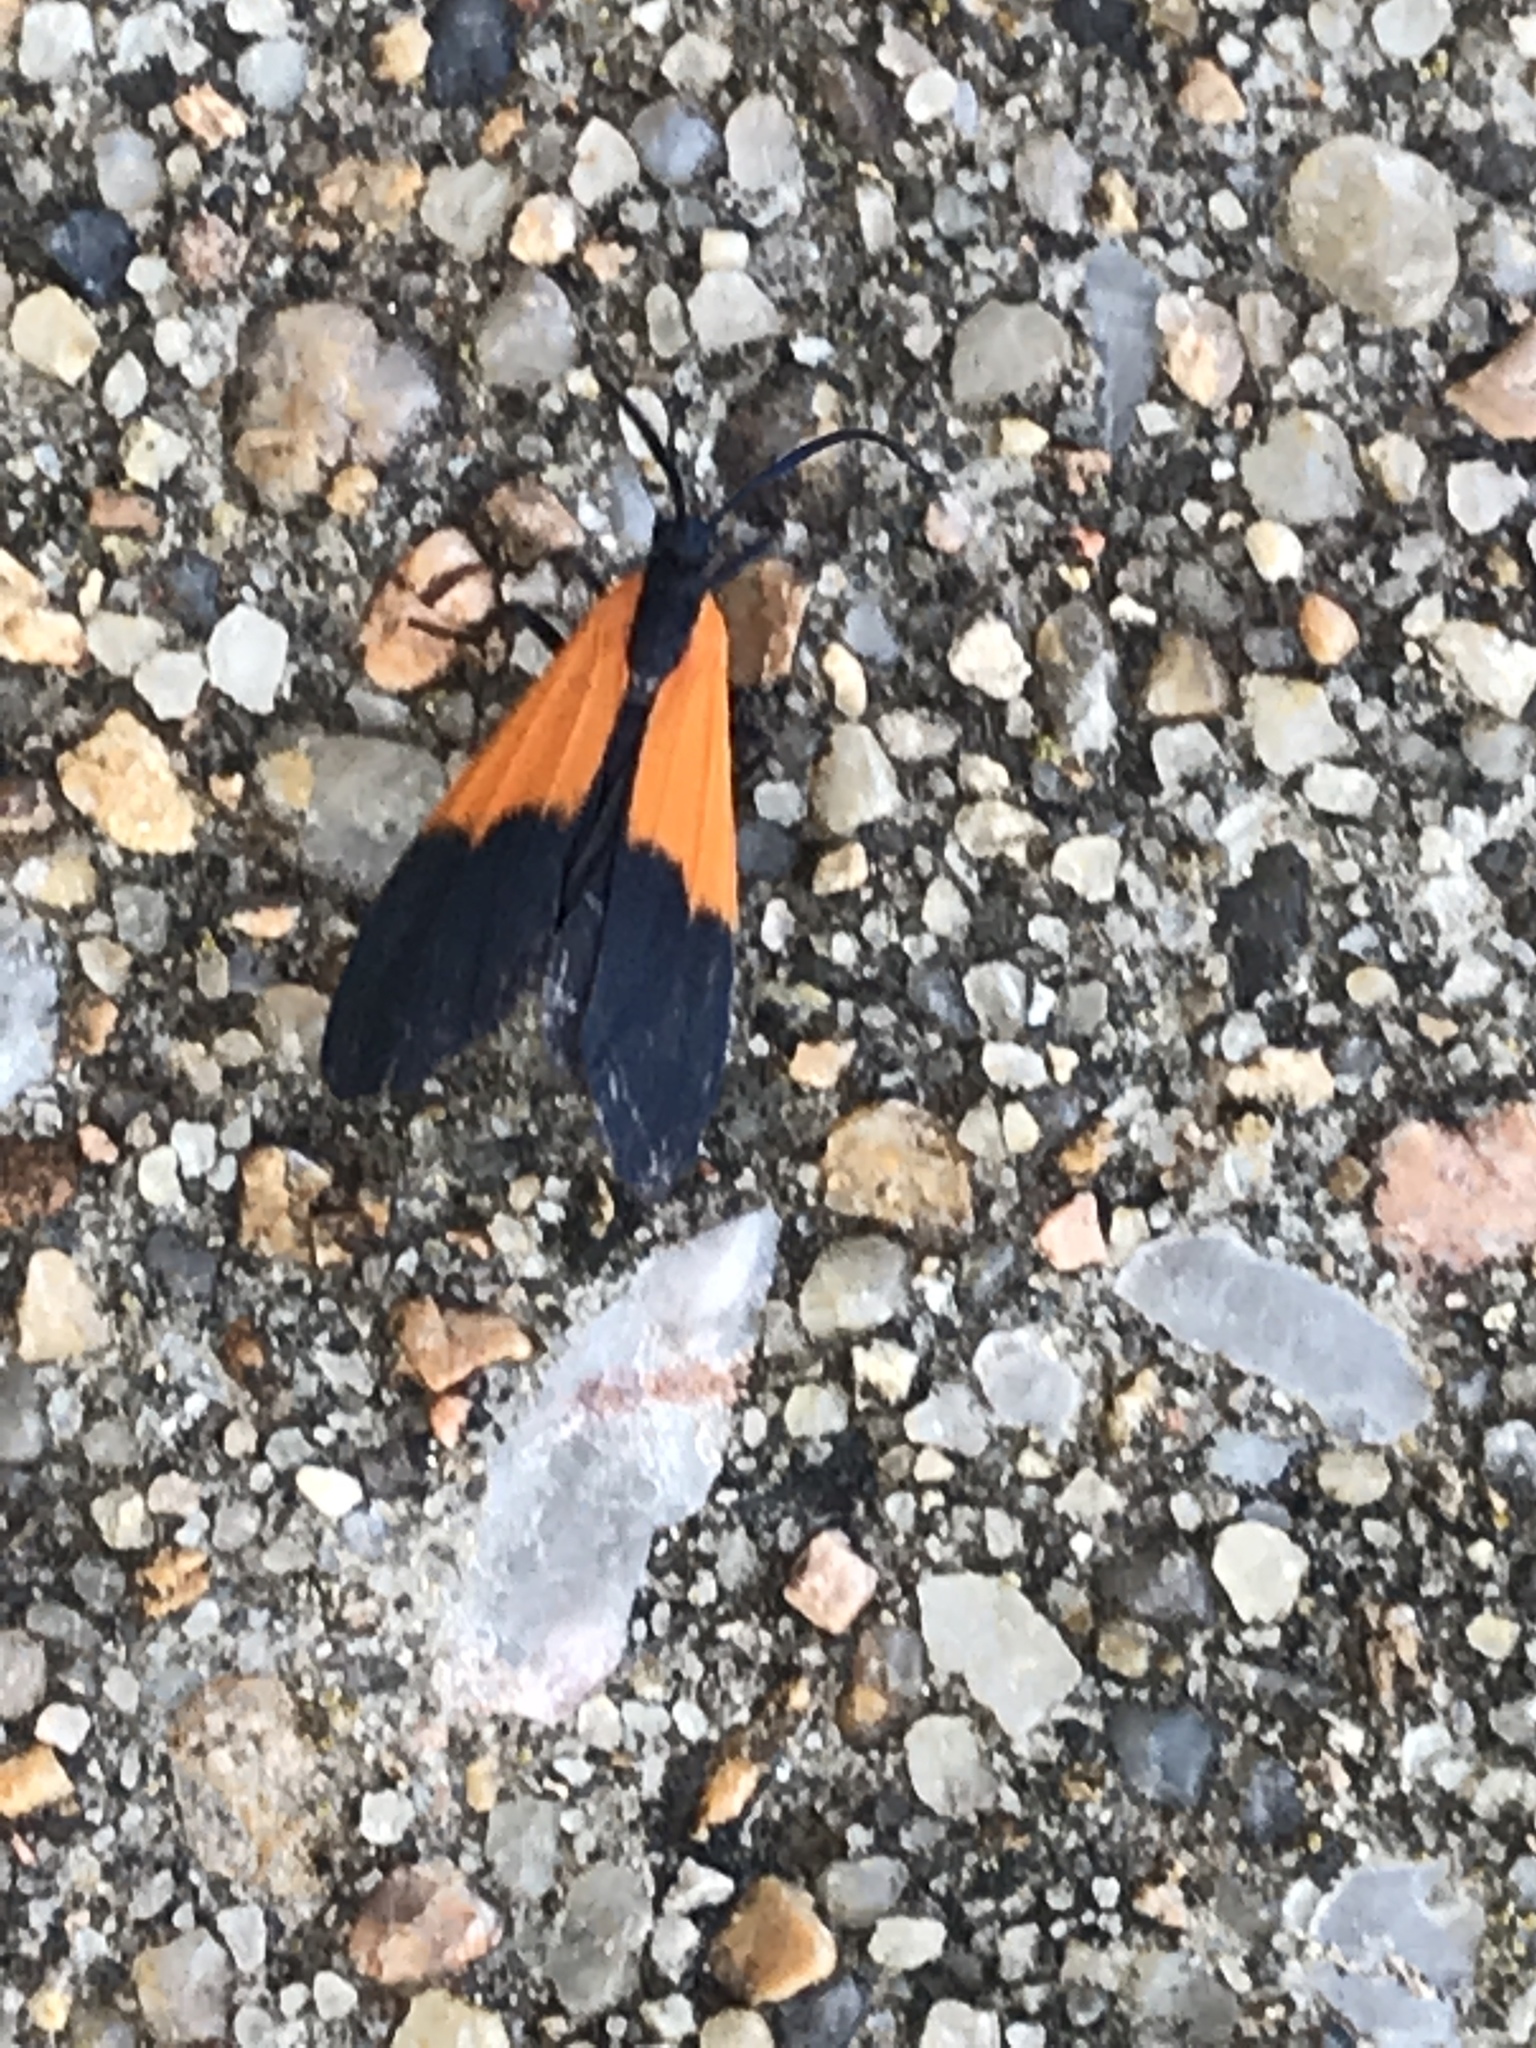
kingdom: Animalia
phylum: Arthropoda
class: Insecta
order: Lepidoptera
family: Erebidae
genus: Lycomorpha
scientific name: Lycomorpha pholus
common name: Black-and-yellow lichen moth
